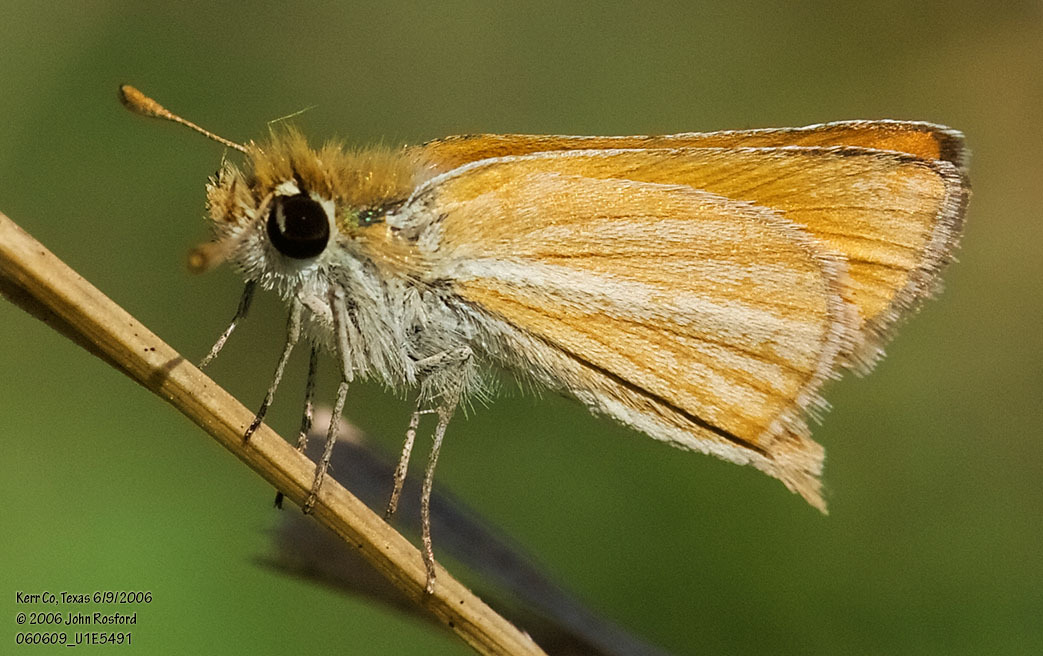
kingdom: Animalia
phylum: Arthropoda
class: Insecta
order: Lepidoptera
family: Hesperiidae
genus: Copaeodes
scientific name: Copaeodes minima
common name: Southern skipperling
